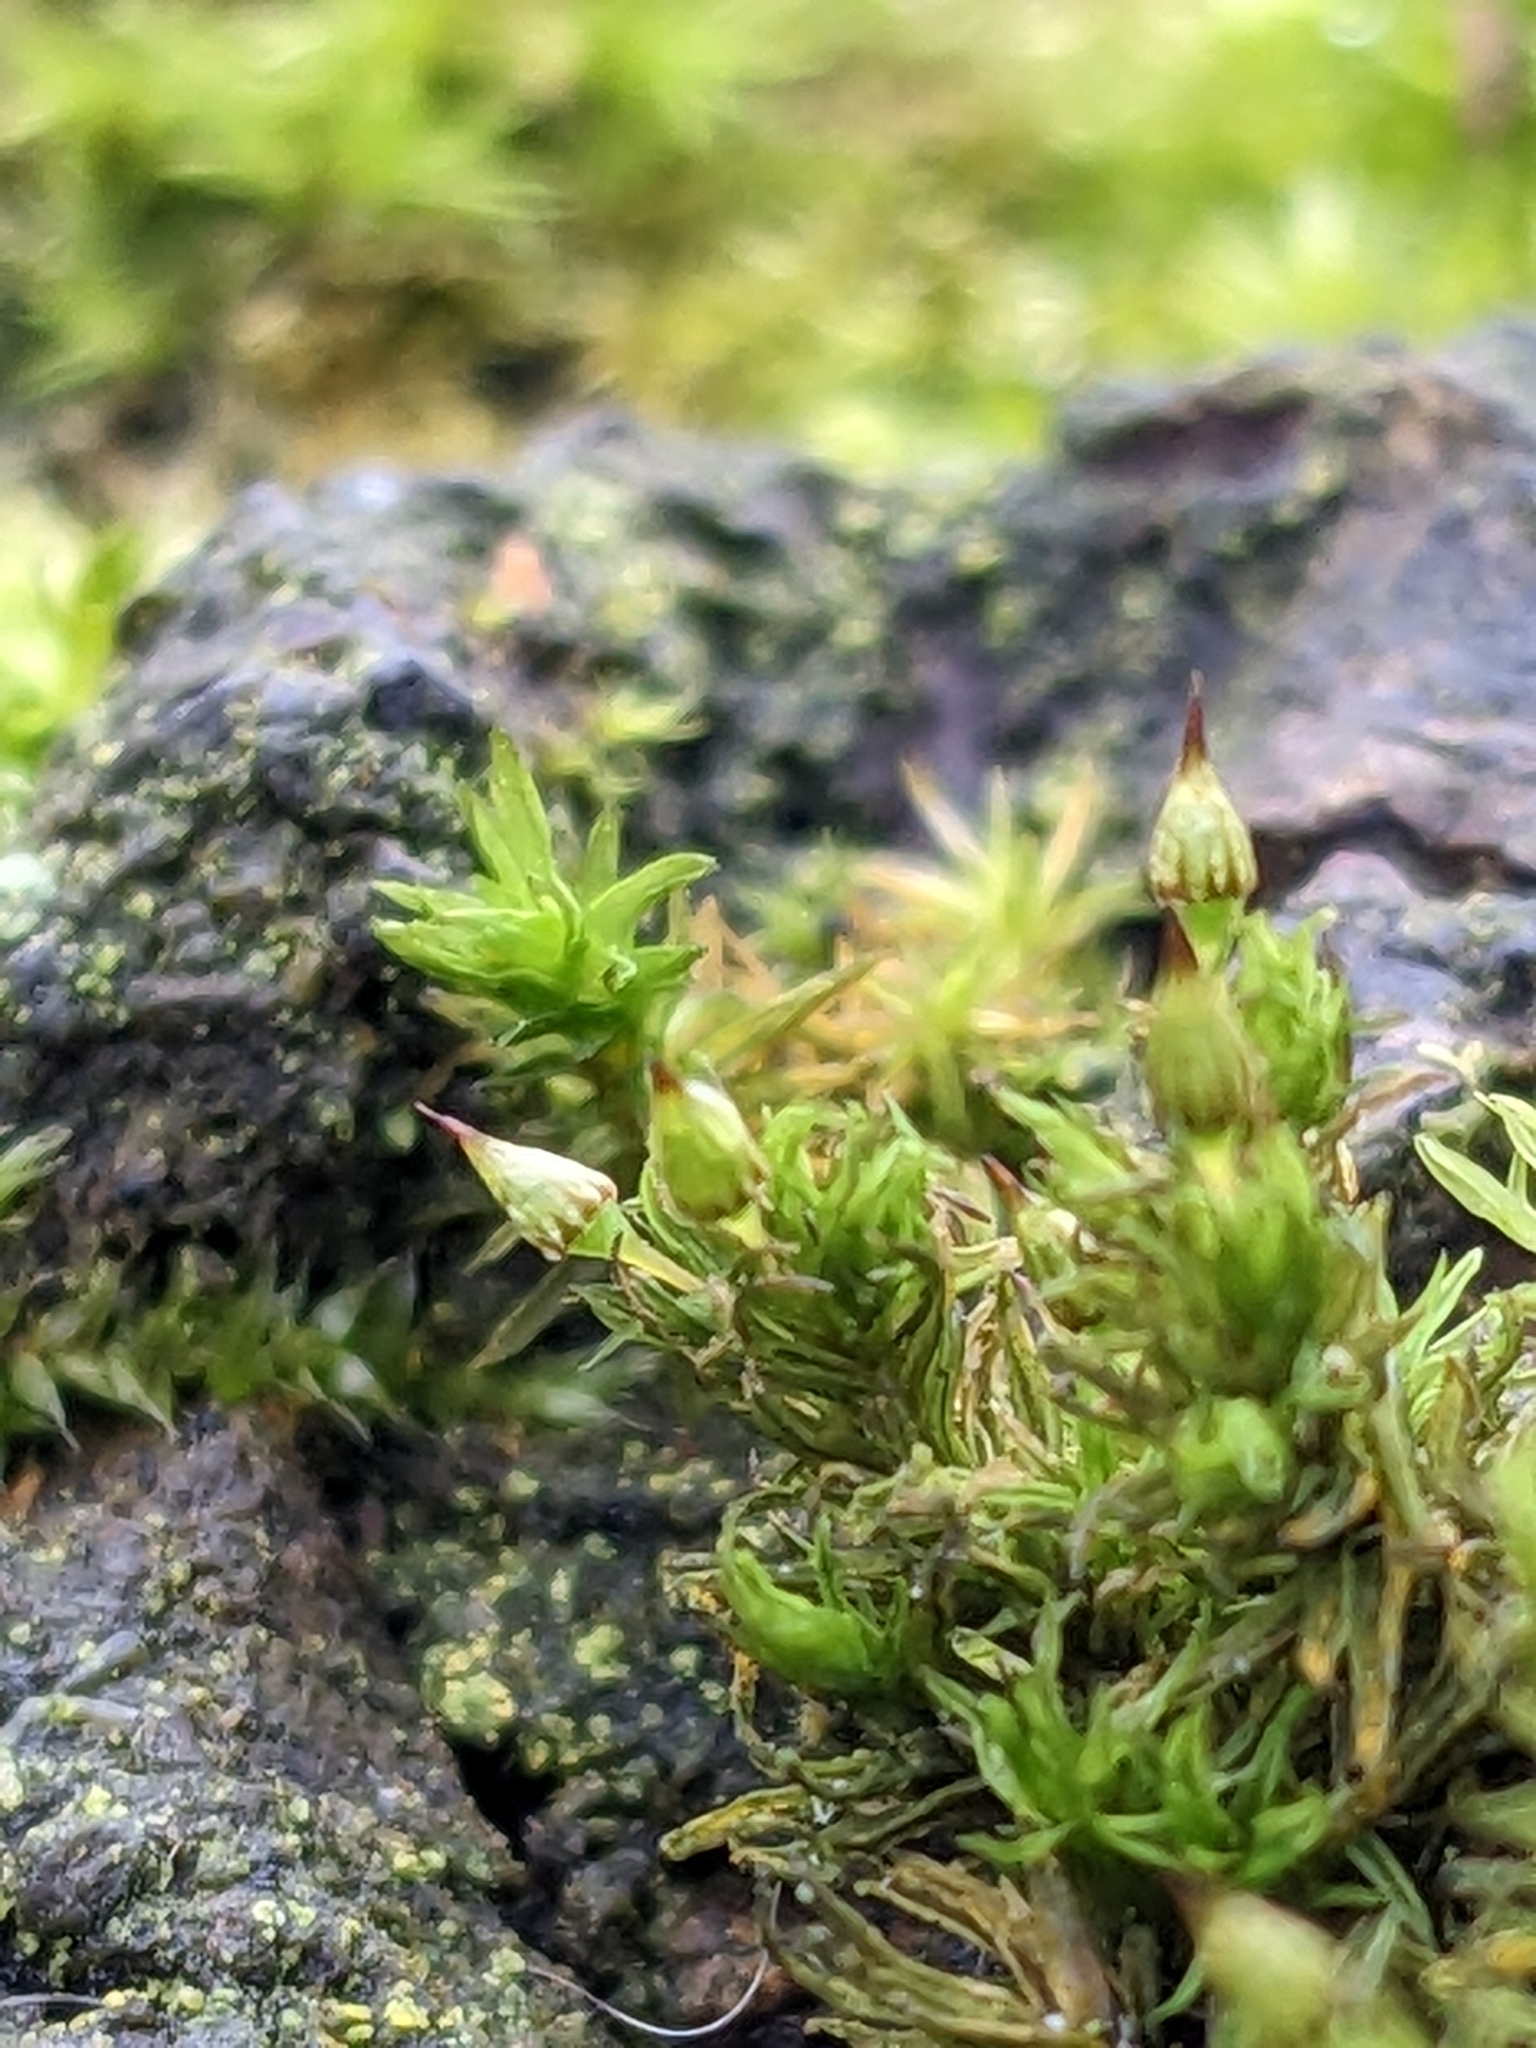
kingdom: Plantae
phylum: Bryophyta
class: Bryopsida
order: Orthotrichales
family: Orthotrichaceae
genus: Orthotrichum
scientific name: Orthotrichum pulchellum
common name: Elegant bristle-moss
